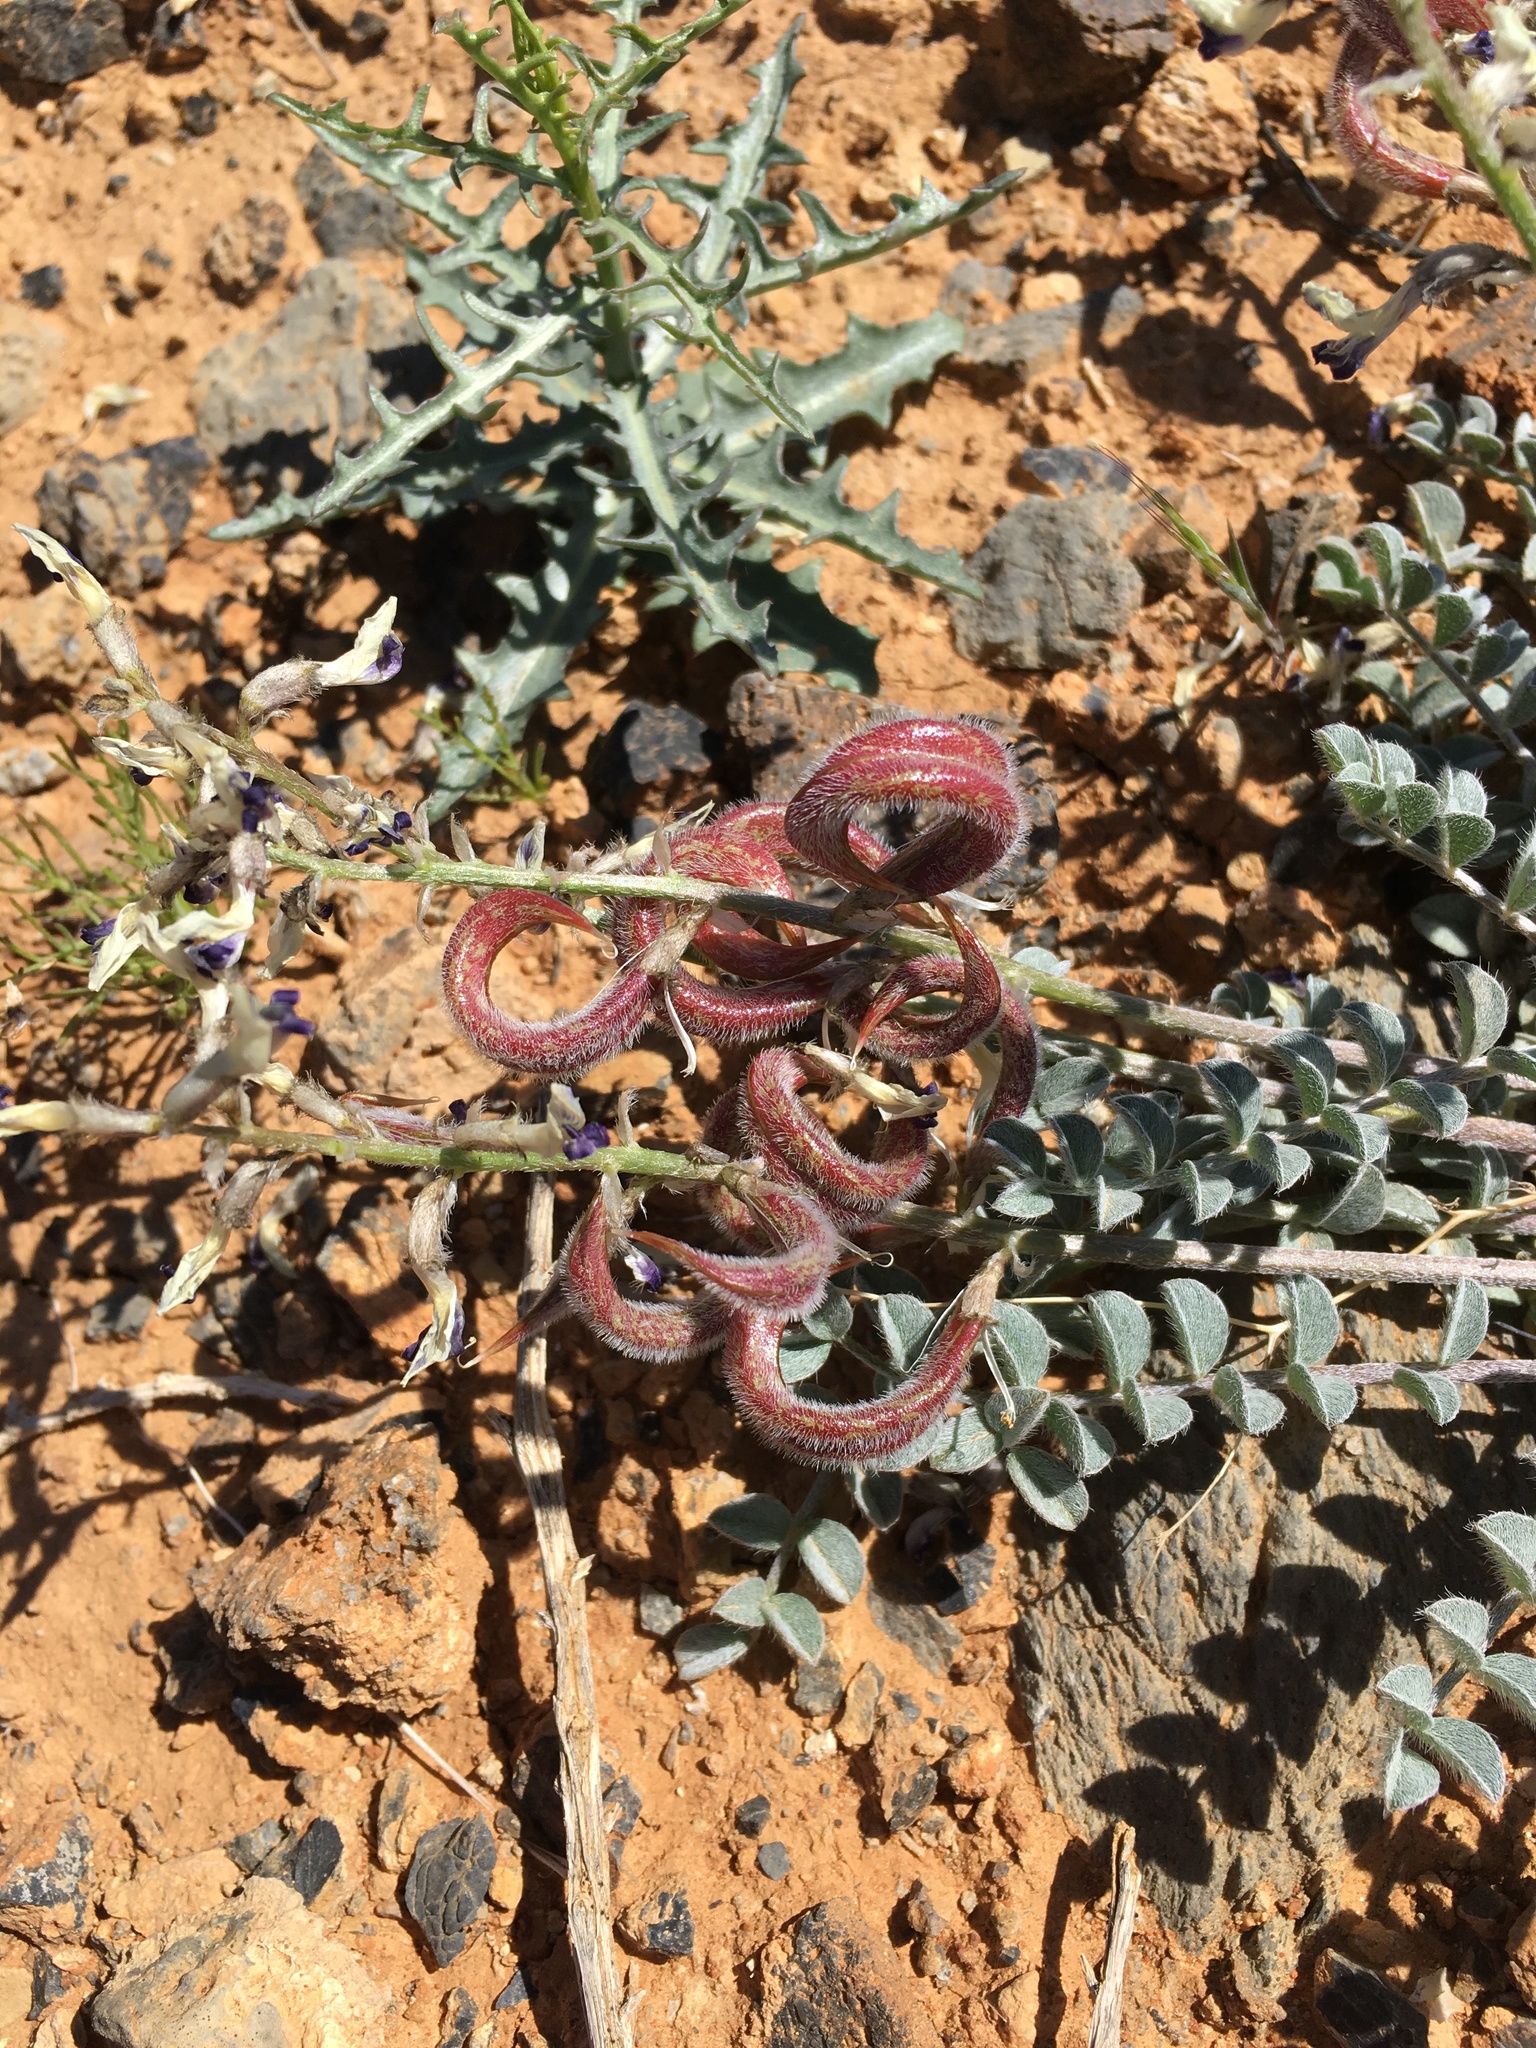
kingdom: Plantae
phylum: Tracheophyta
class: Magnoliopsida
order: Fabales
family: Fabaceae
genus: Astragalus
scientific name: Astragalus layneae
